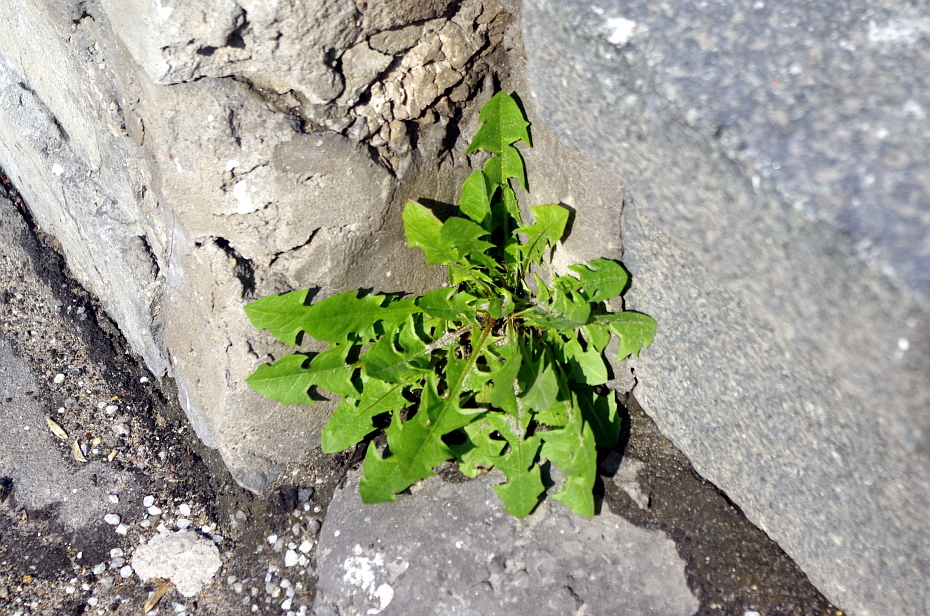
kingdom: Plantae
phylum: Tracheophyta
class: Magnoliopsida
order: Asterales
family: Asteraceae
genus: Taraxacum
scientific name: Taraxacum officinale
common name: Common dandelion
